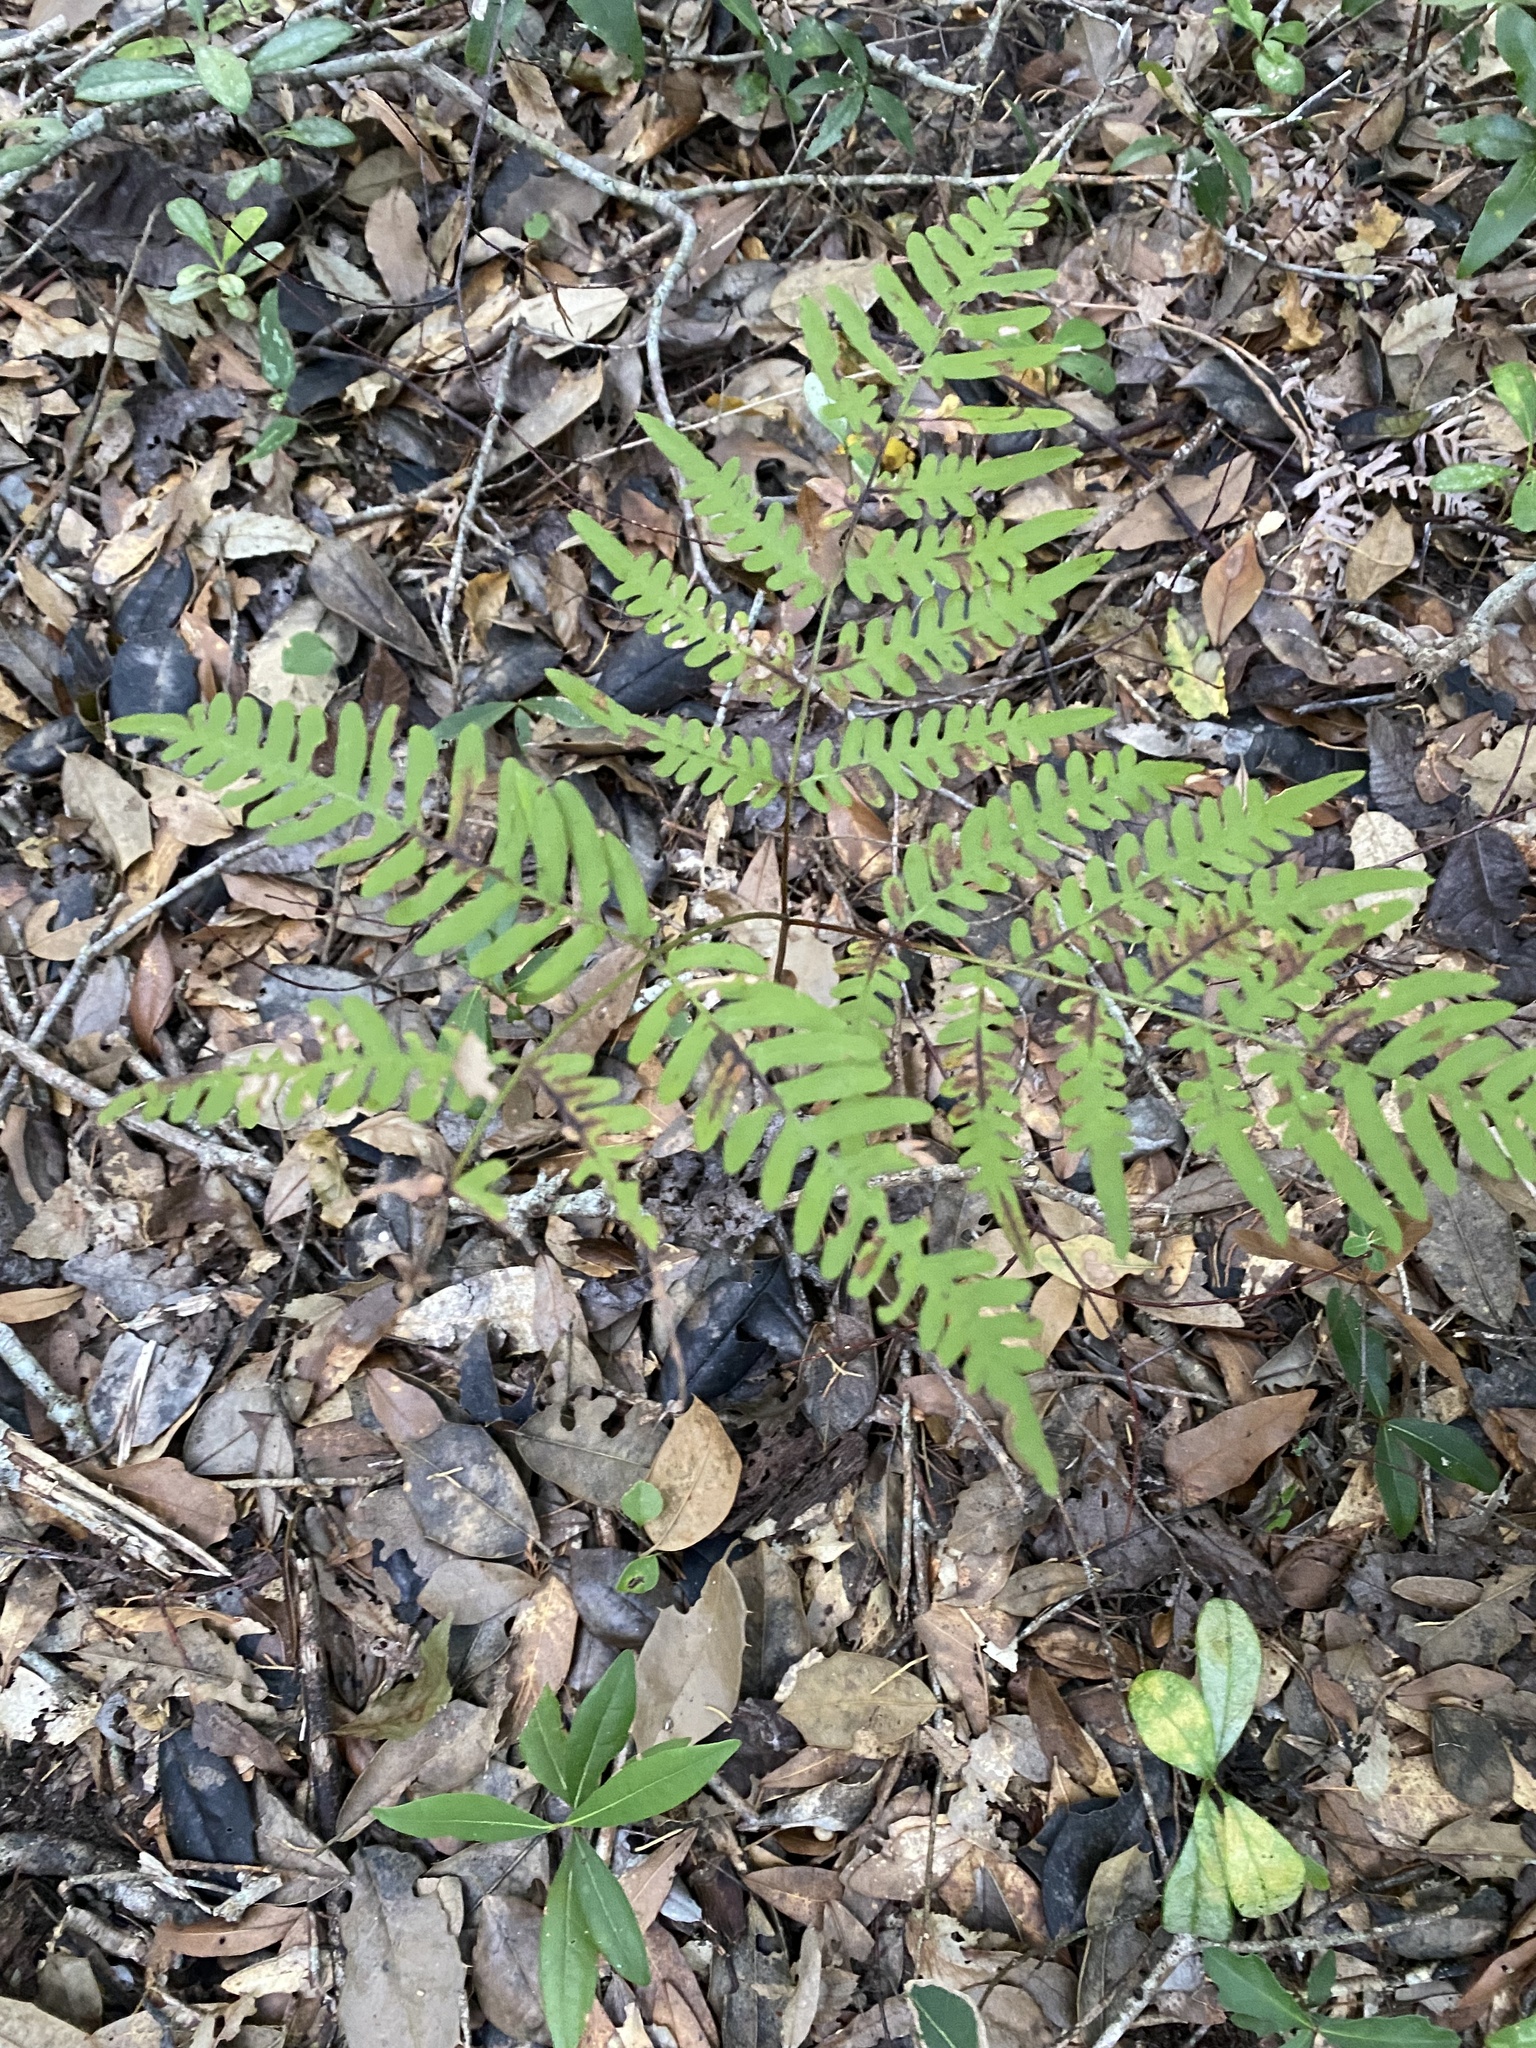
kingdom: Plantae
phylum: Tracheophyta
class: Polypodiopsida
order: Polypodiales
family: Dennstaedtiaceae
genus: Pteridium
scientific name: Pteridium aquilinum
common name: Bracken
